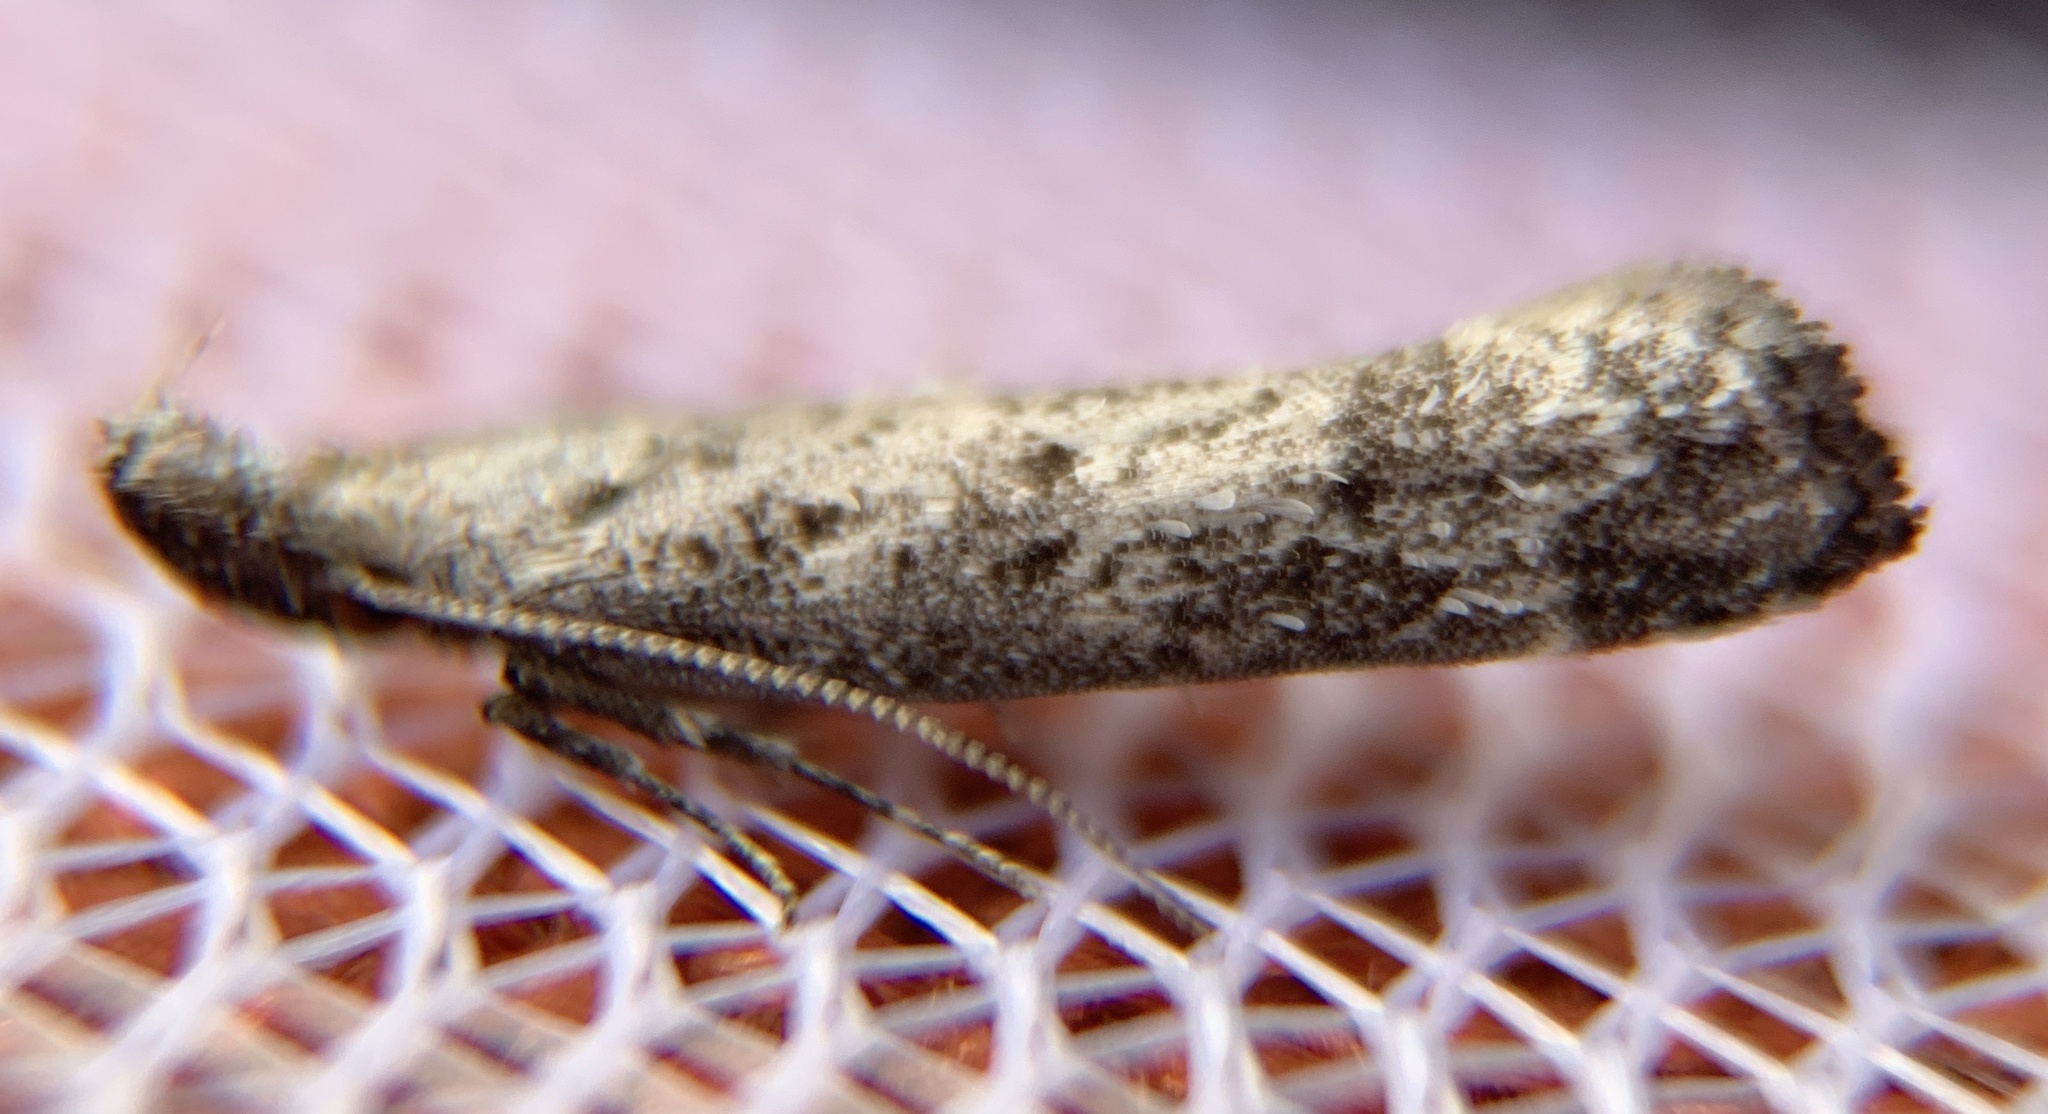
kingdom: Animalia
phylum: Arthropoda
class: Insecta
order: Lepidoptera
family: Gelechiidae
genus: Dichomeris
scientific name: Dichomeris inversella
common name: Inverse dichomeris moth
